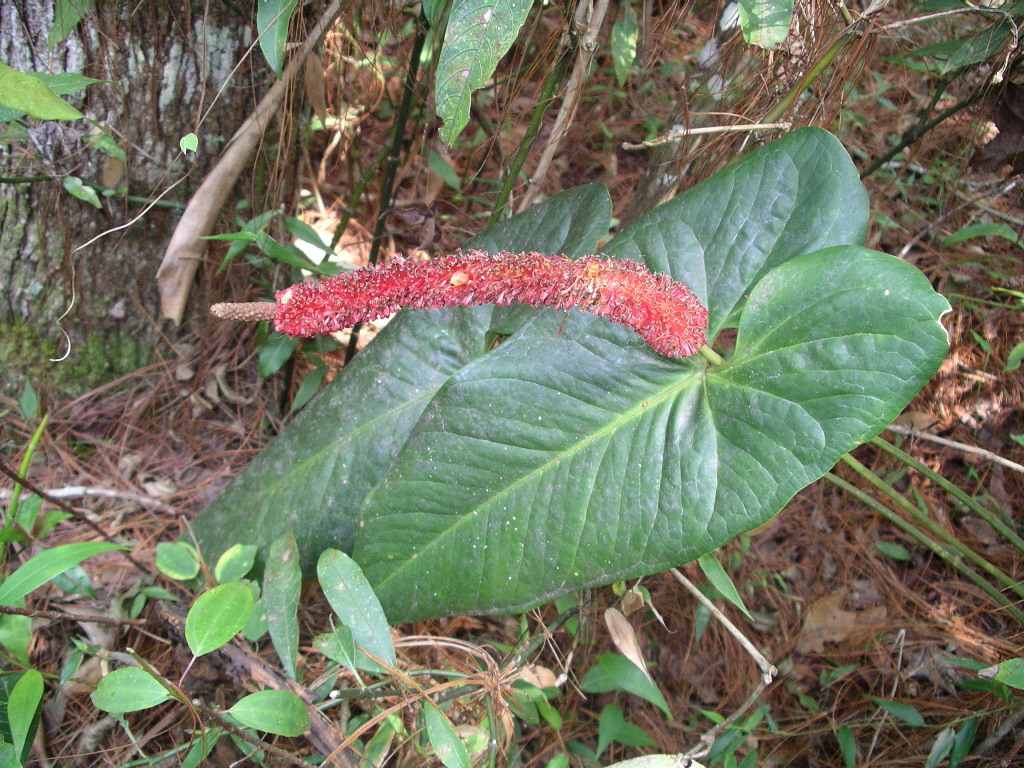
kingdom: Plantae
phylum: Tracheophyta
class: Liliopsida
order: Alismatales
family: Araceae
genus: Anthurium
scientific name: Anthurium lucens
